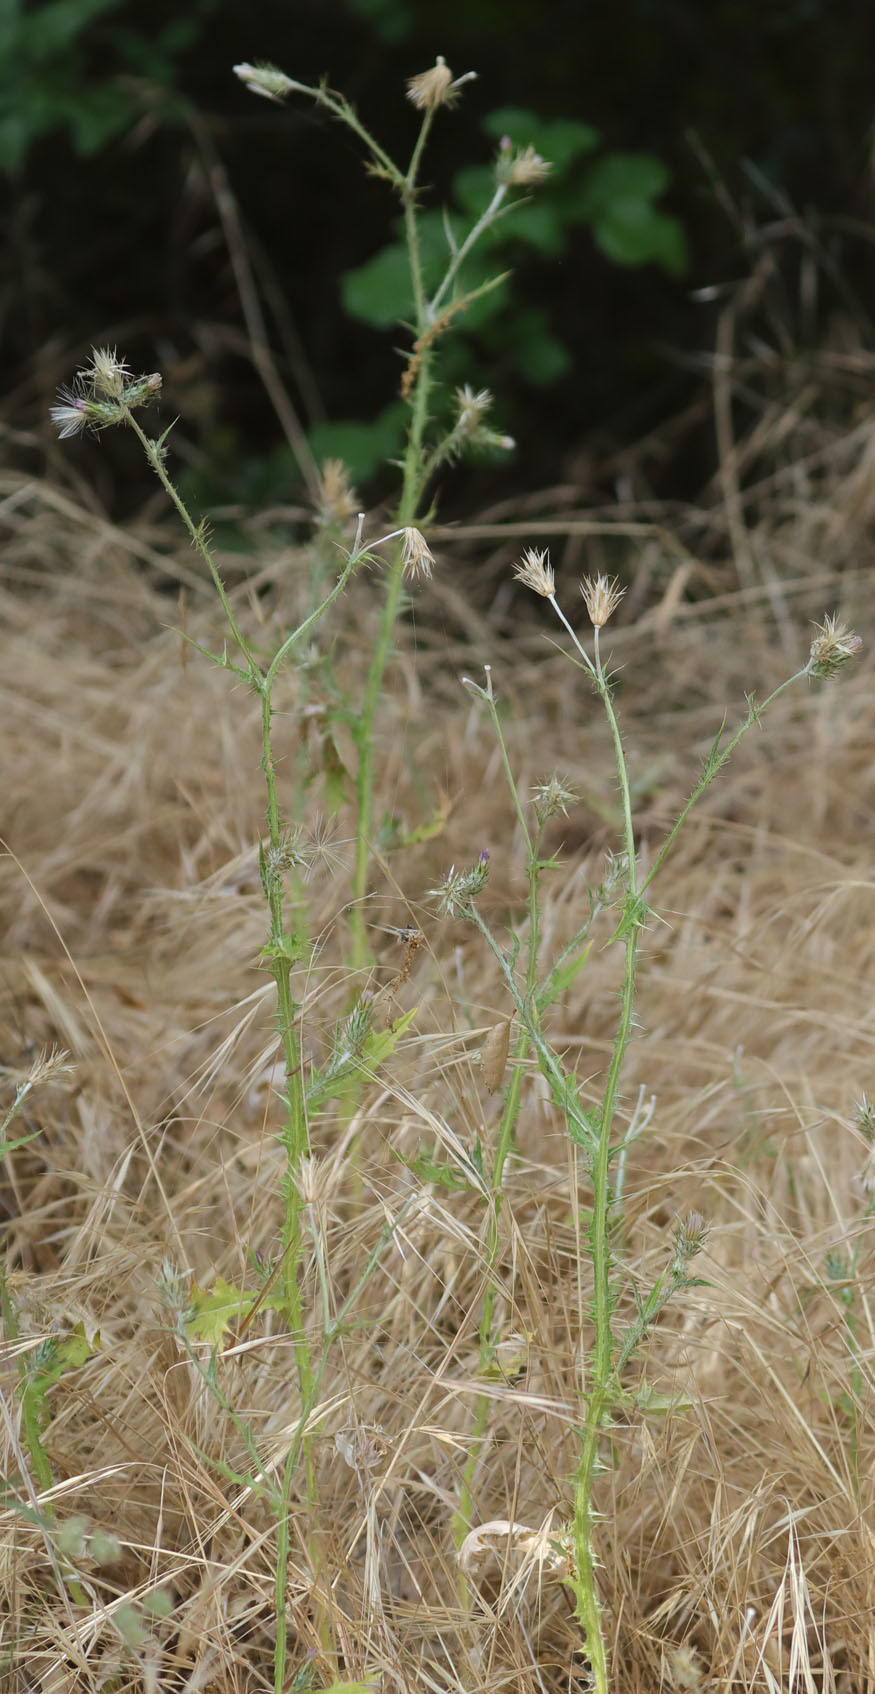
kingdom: Plantae
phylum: Tracheophyta
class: Magnoliopsida
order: Asterales
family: Asteraceae
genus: Carduus
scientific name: Carduus pycnocephalus
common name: Plymouth thistle
